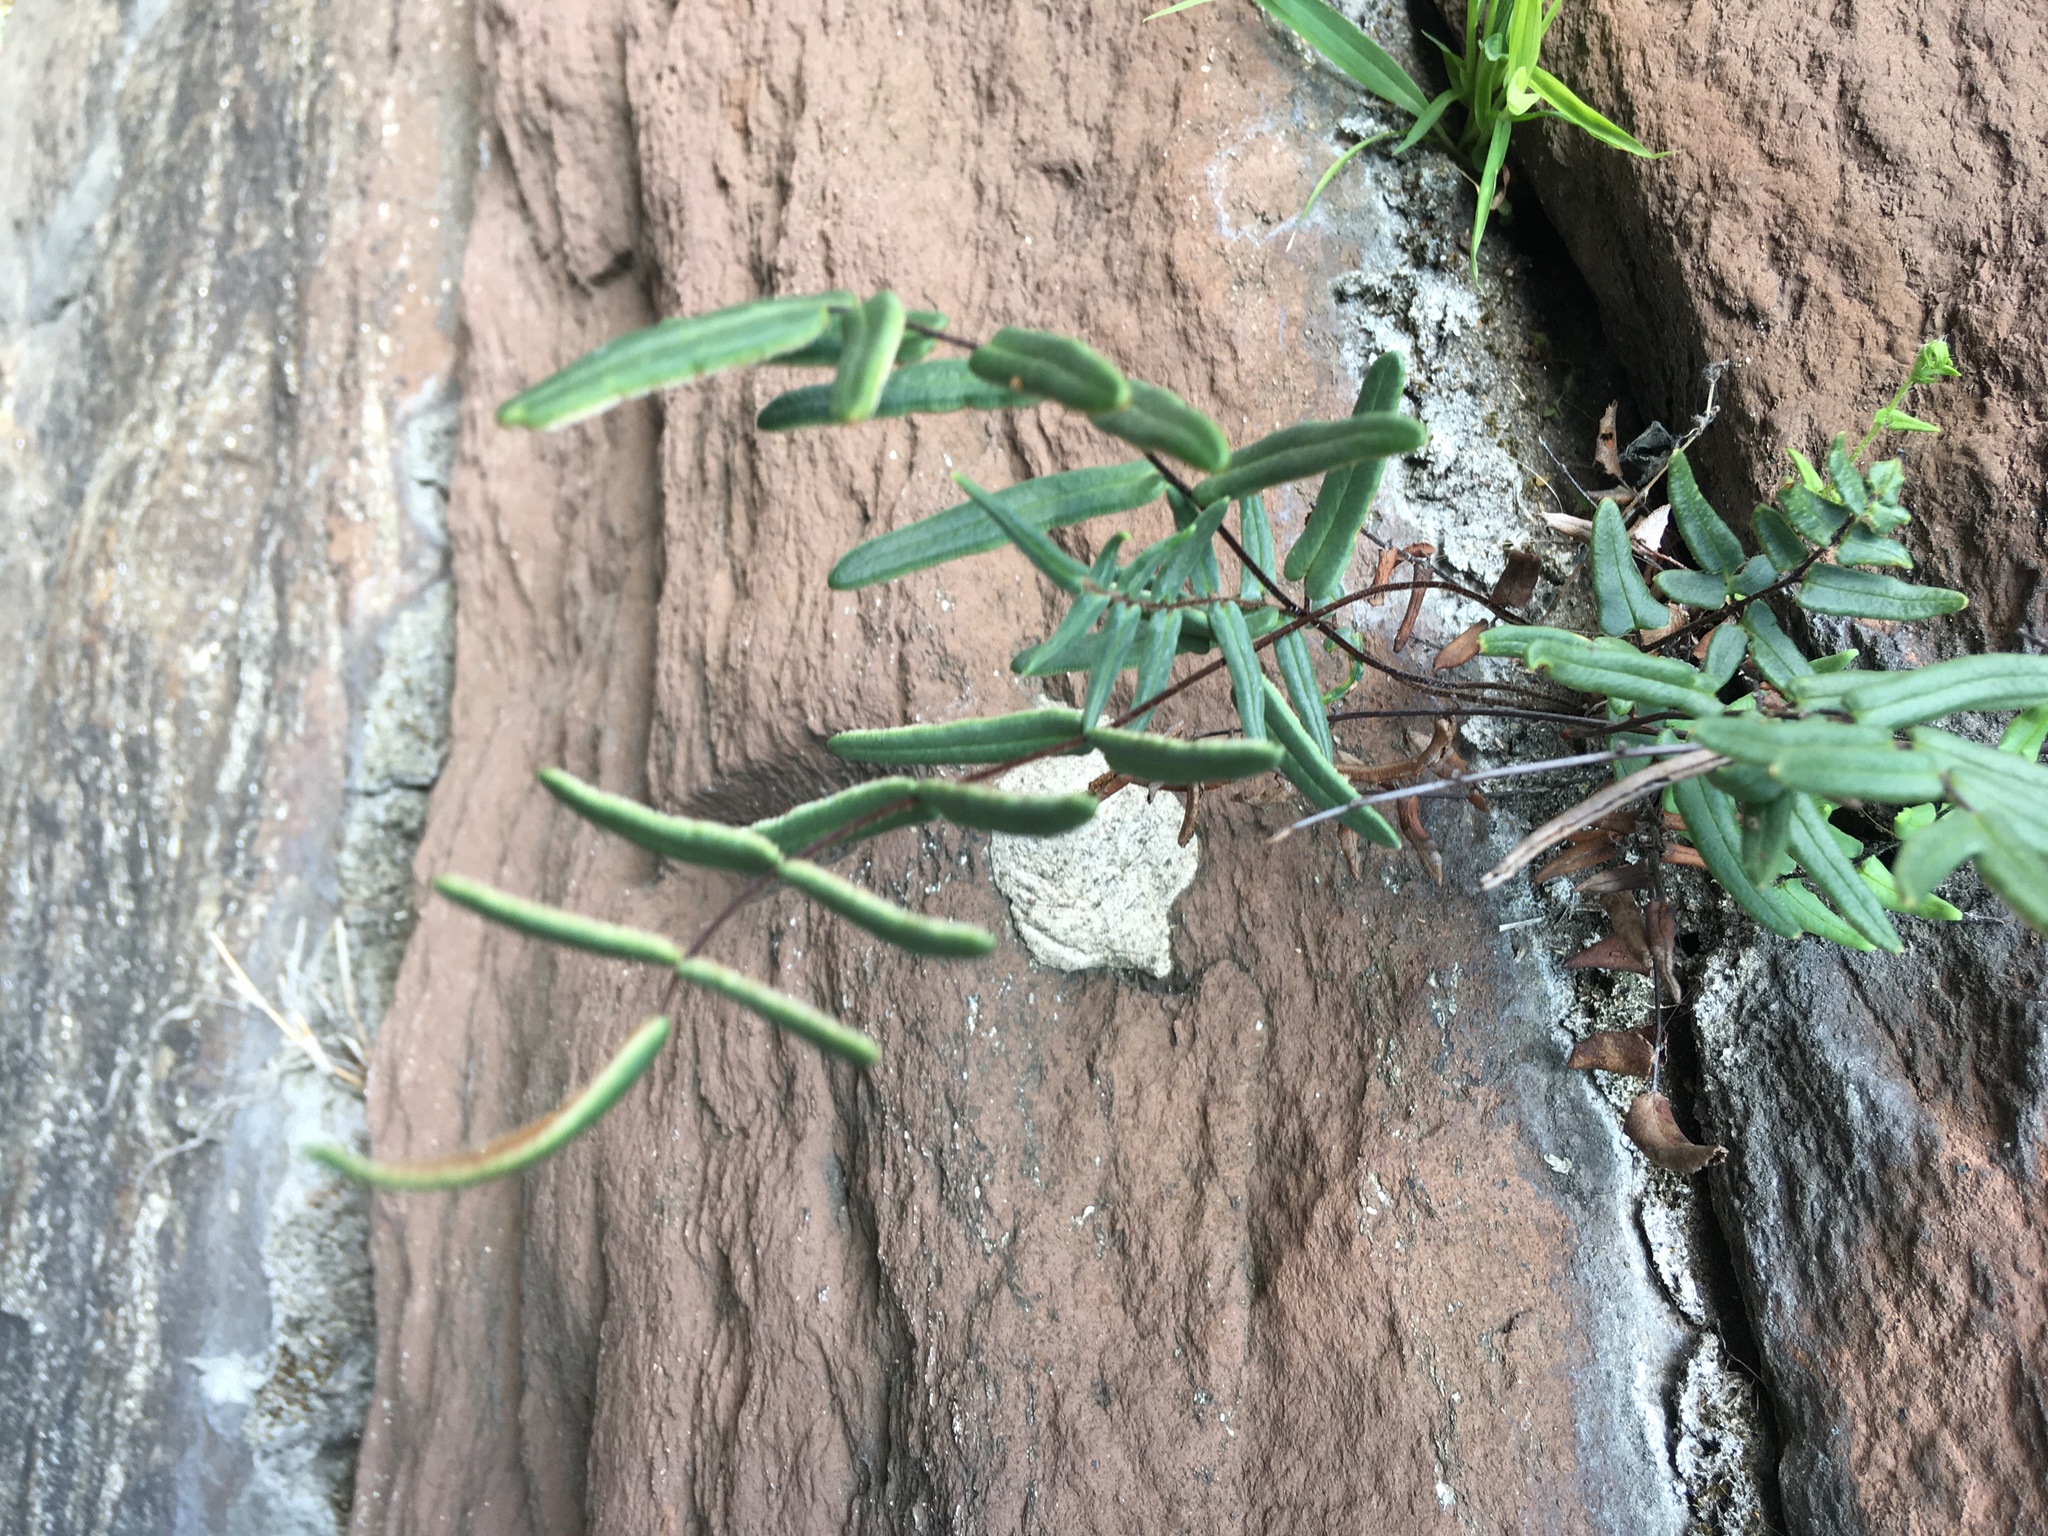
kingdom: Plantae
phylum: Tracheophyta
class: Polypodiopsida
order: Polypodiales
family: Pteridaceae
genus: Pellaea
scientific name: Pellaea atropurpurea
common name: Hairy cliffbrake
